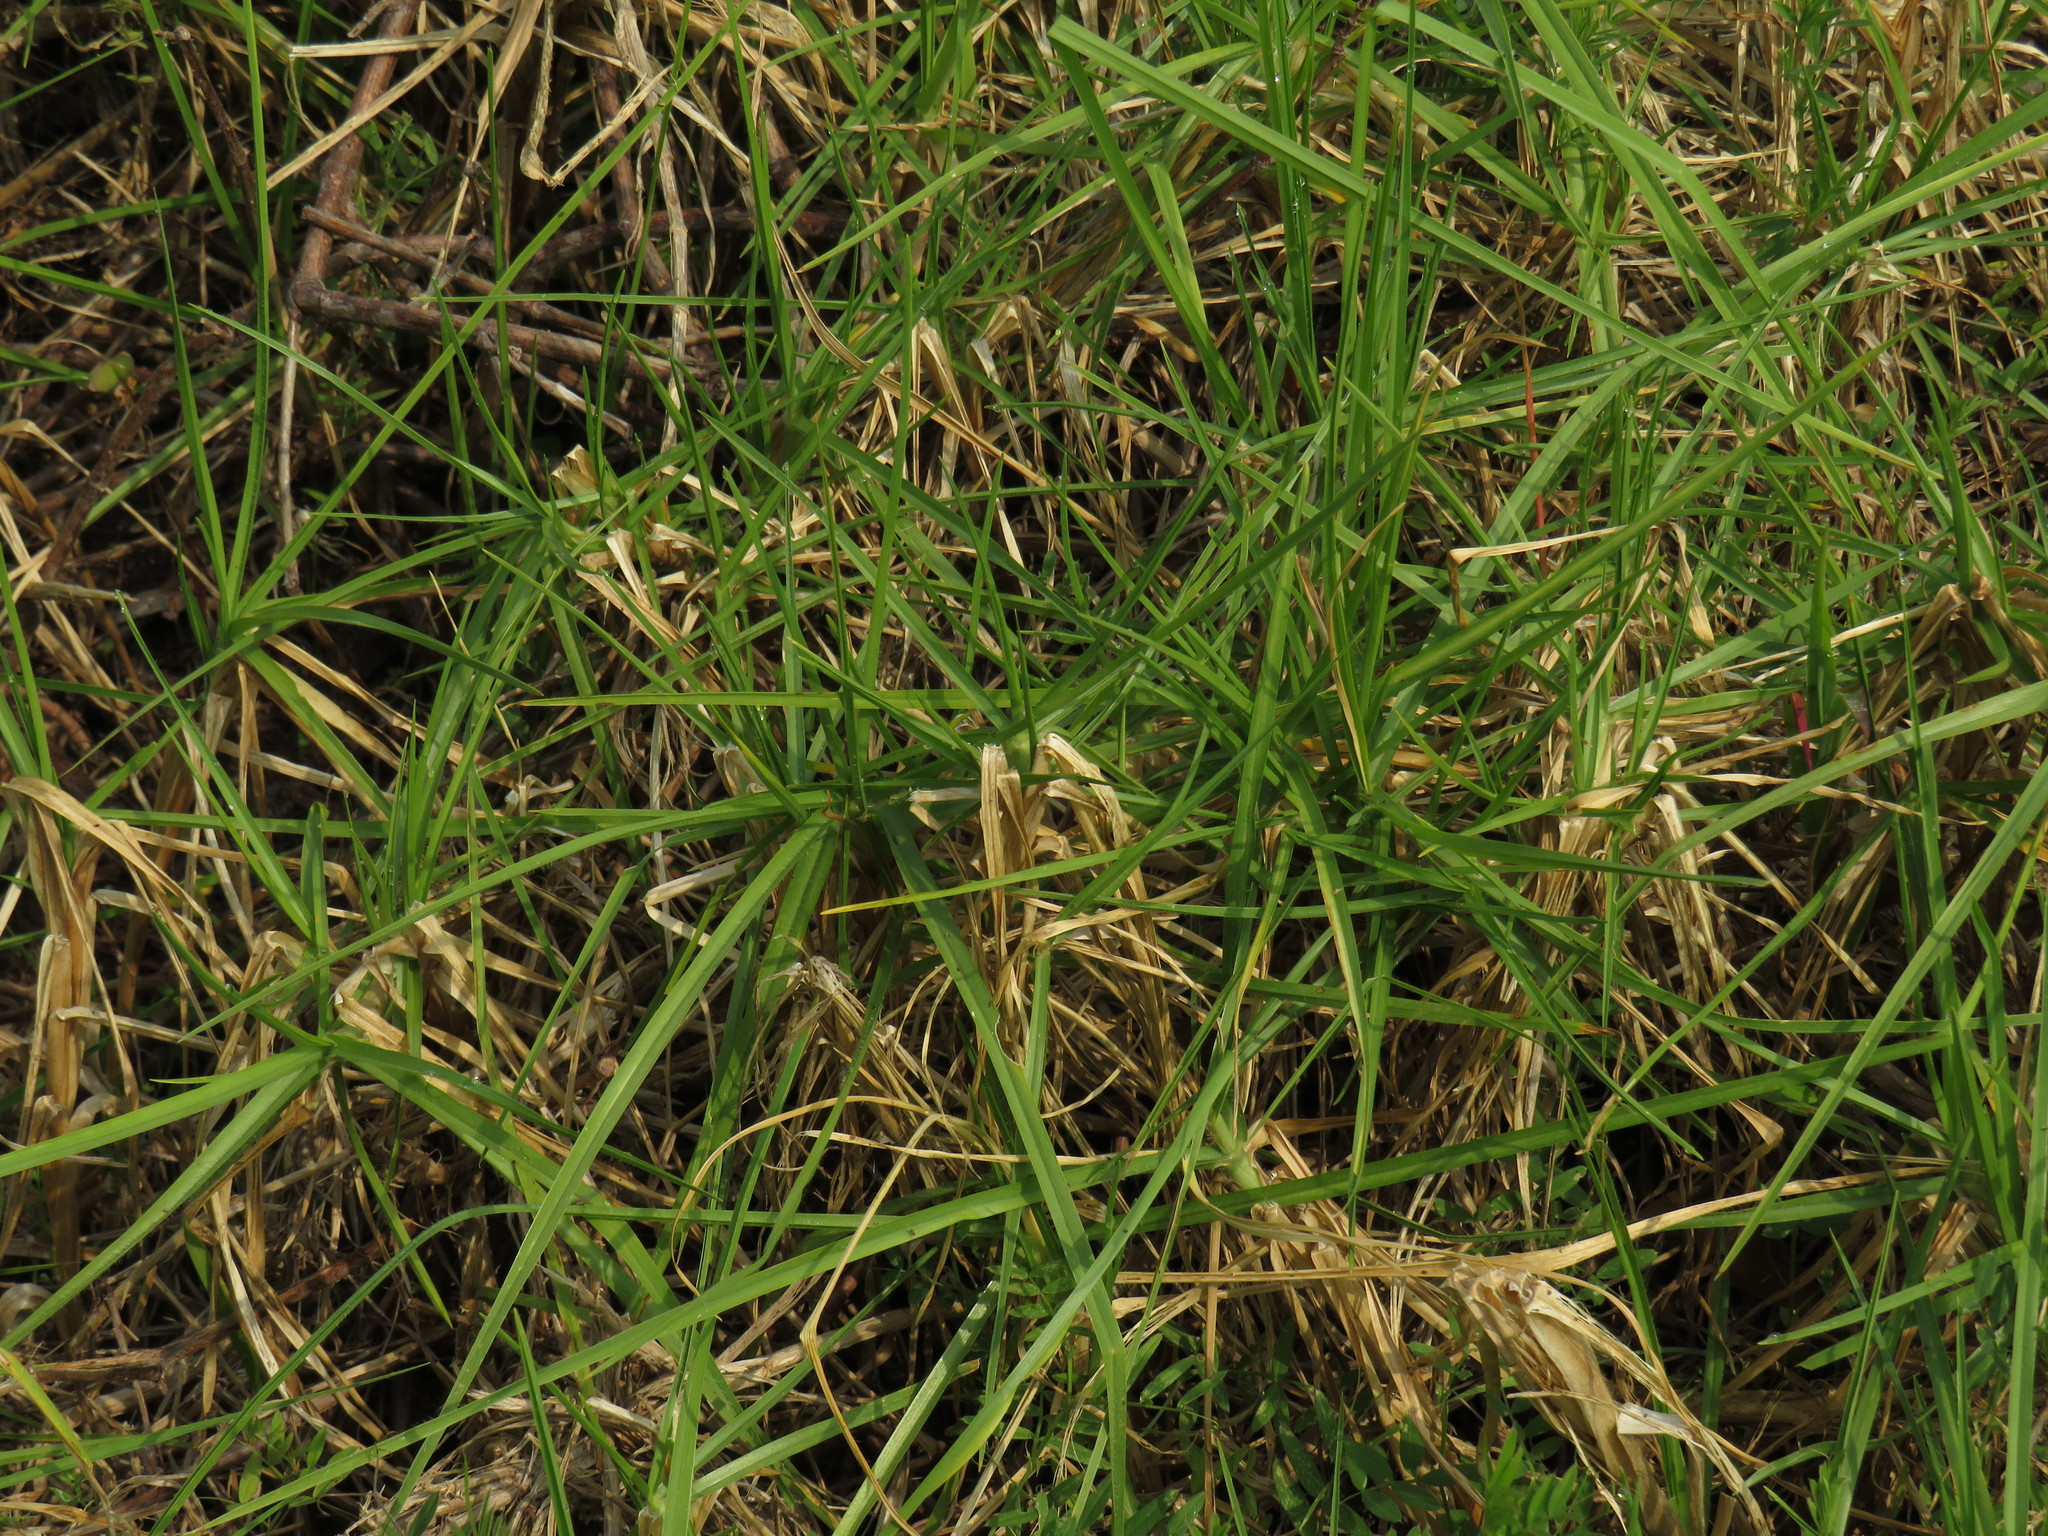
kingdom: Plantae
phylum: Tracheophyta
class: Liliopsida
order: Poales
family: Poaceae
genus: Cenchrus
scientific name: Cenchrus clandestinus
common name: Kikuyugrass
